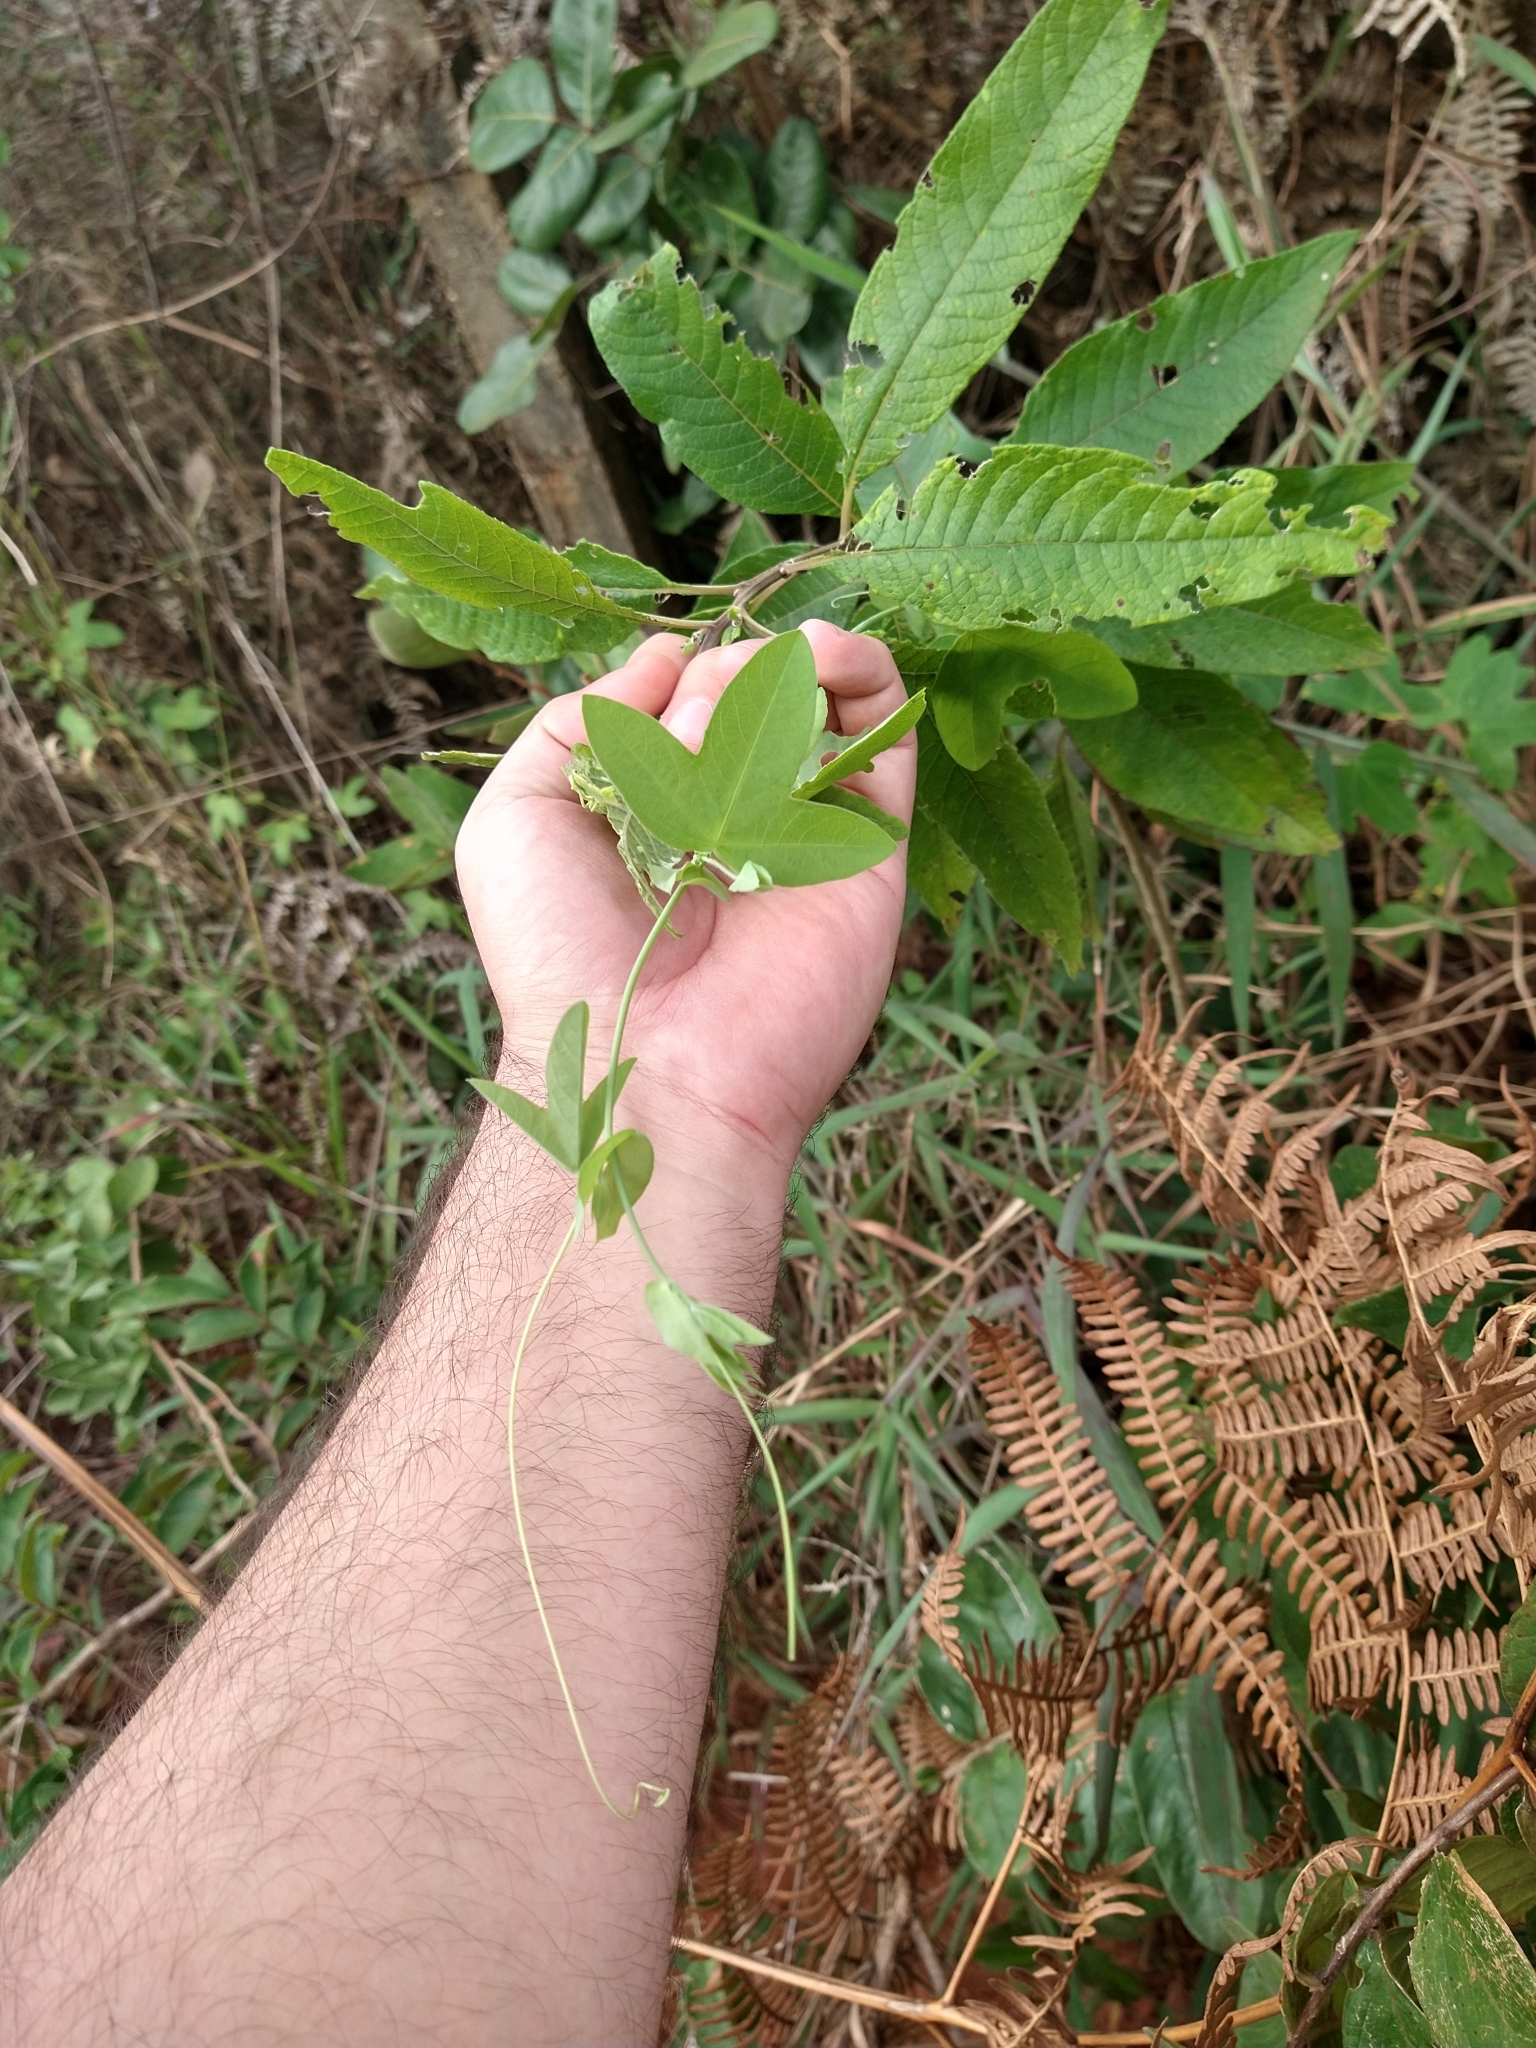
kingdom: Plantae
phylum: Tracheophyta
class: Magnoliopsida
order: Malpighiales
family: Passifloraceae
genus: Passiflora
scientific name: Passiflora amethystina
